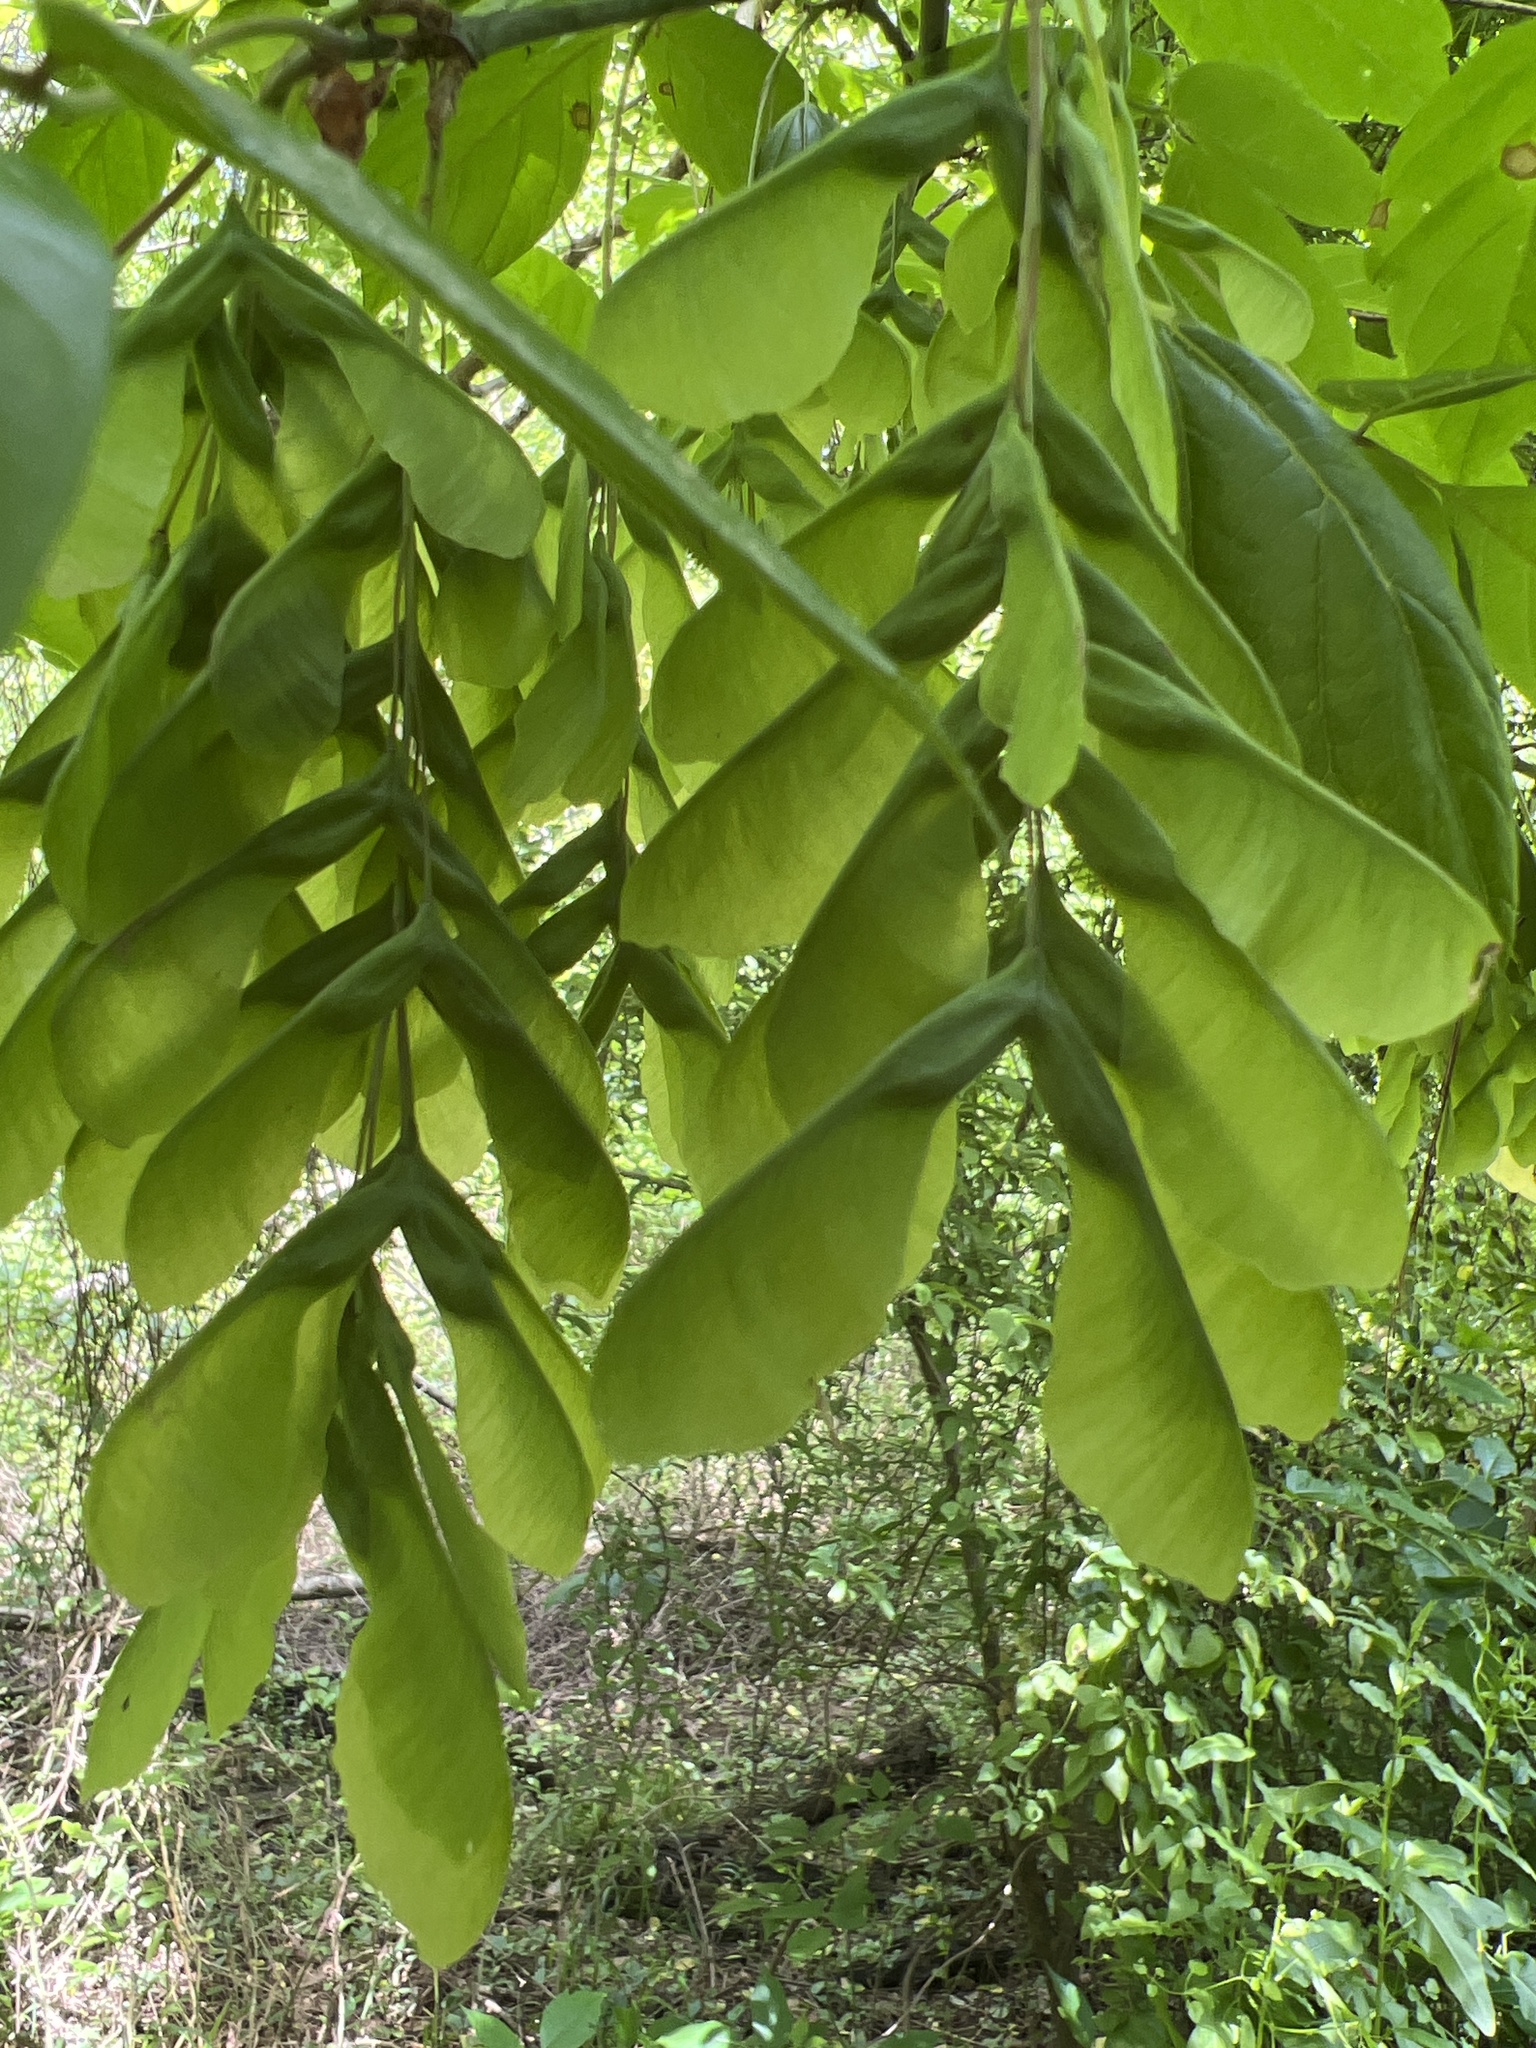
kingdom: Plantae
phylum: Tracheophyta
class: Magnoliopsida
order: Sapindales
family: Sapindaceae
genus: Acer
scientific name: Acer negundo
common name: Ashleaf maple
